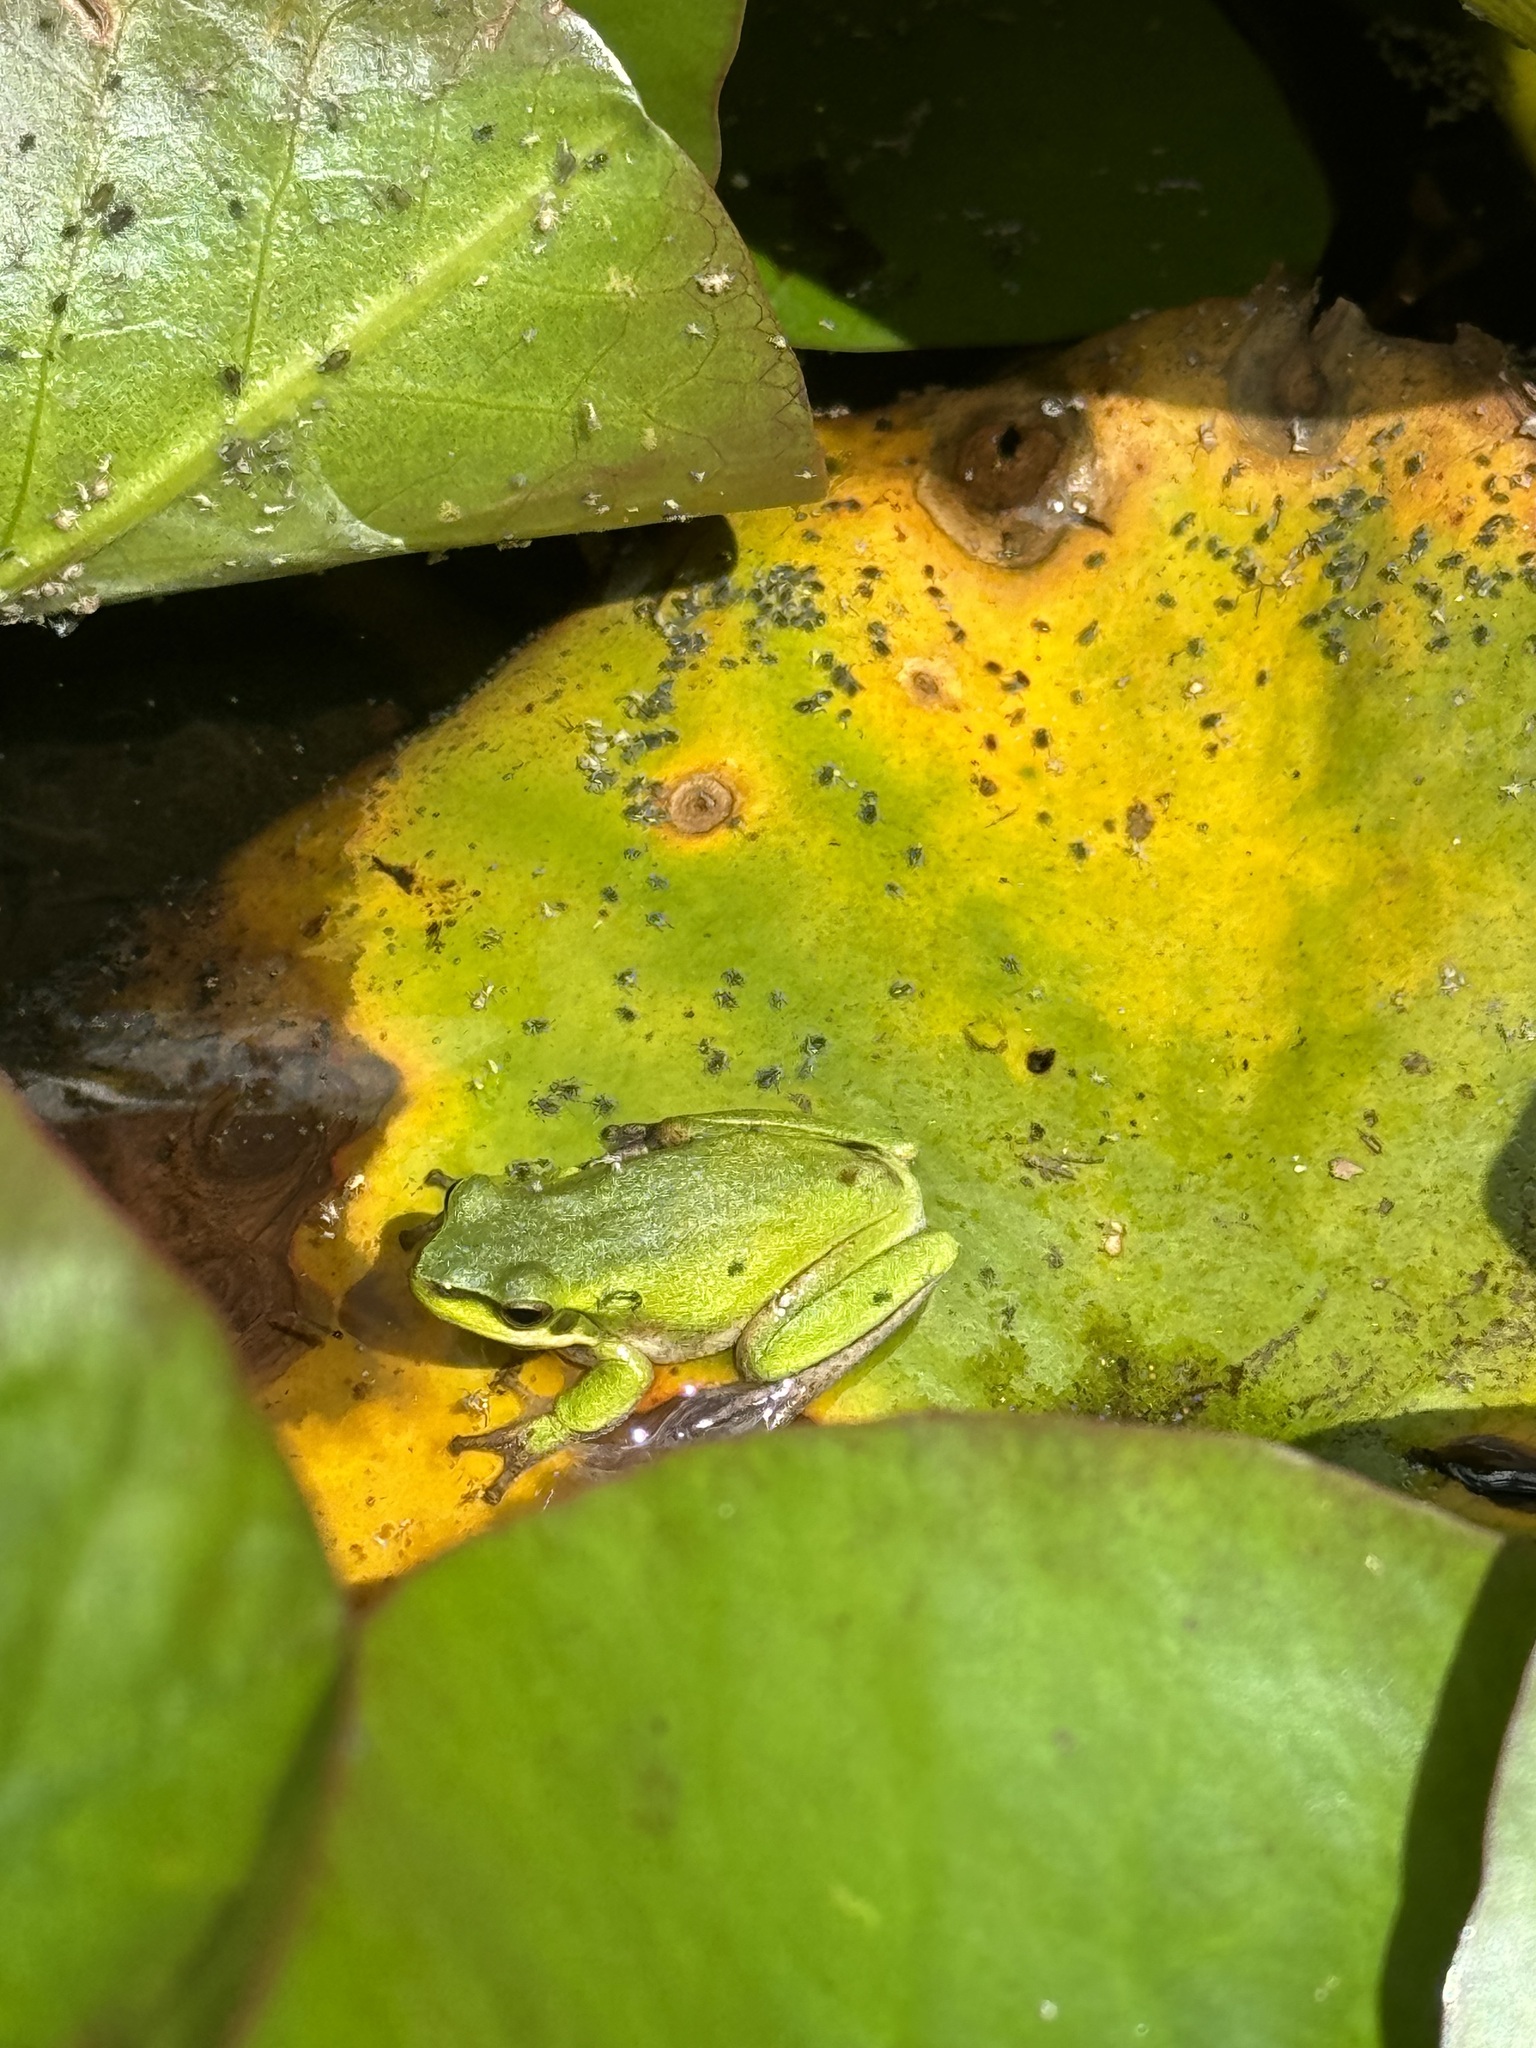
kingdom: Animalia
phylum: Chordata
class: Amphibia
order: Anura
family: Pelodryadidae
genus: Litoria
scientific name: Litoria fallax
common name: Eastern dwarf treefrog
